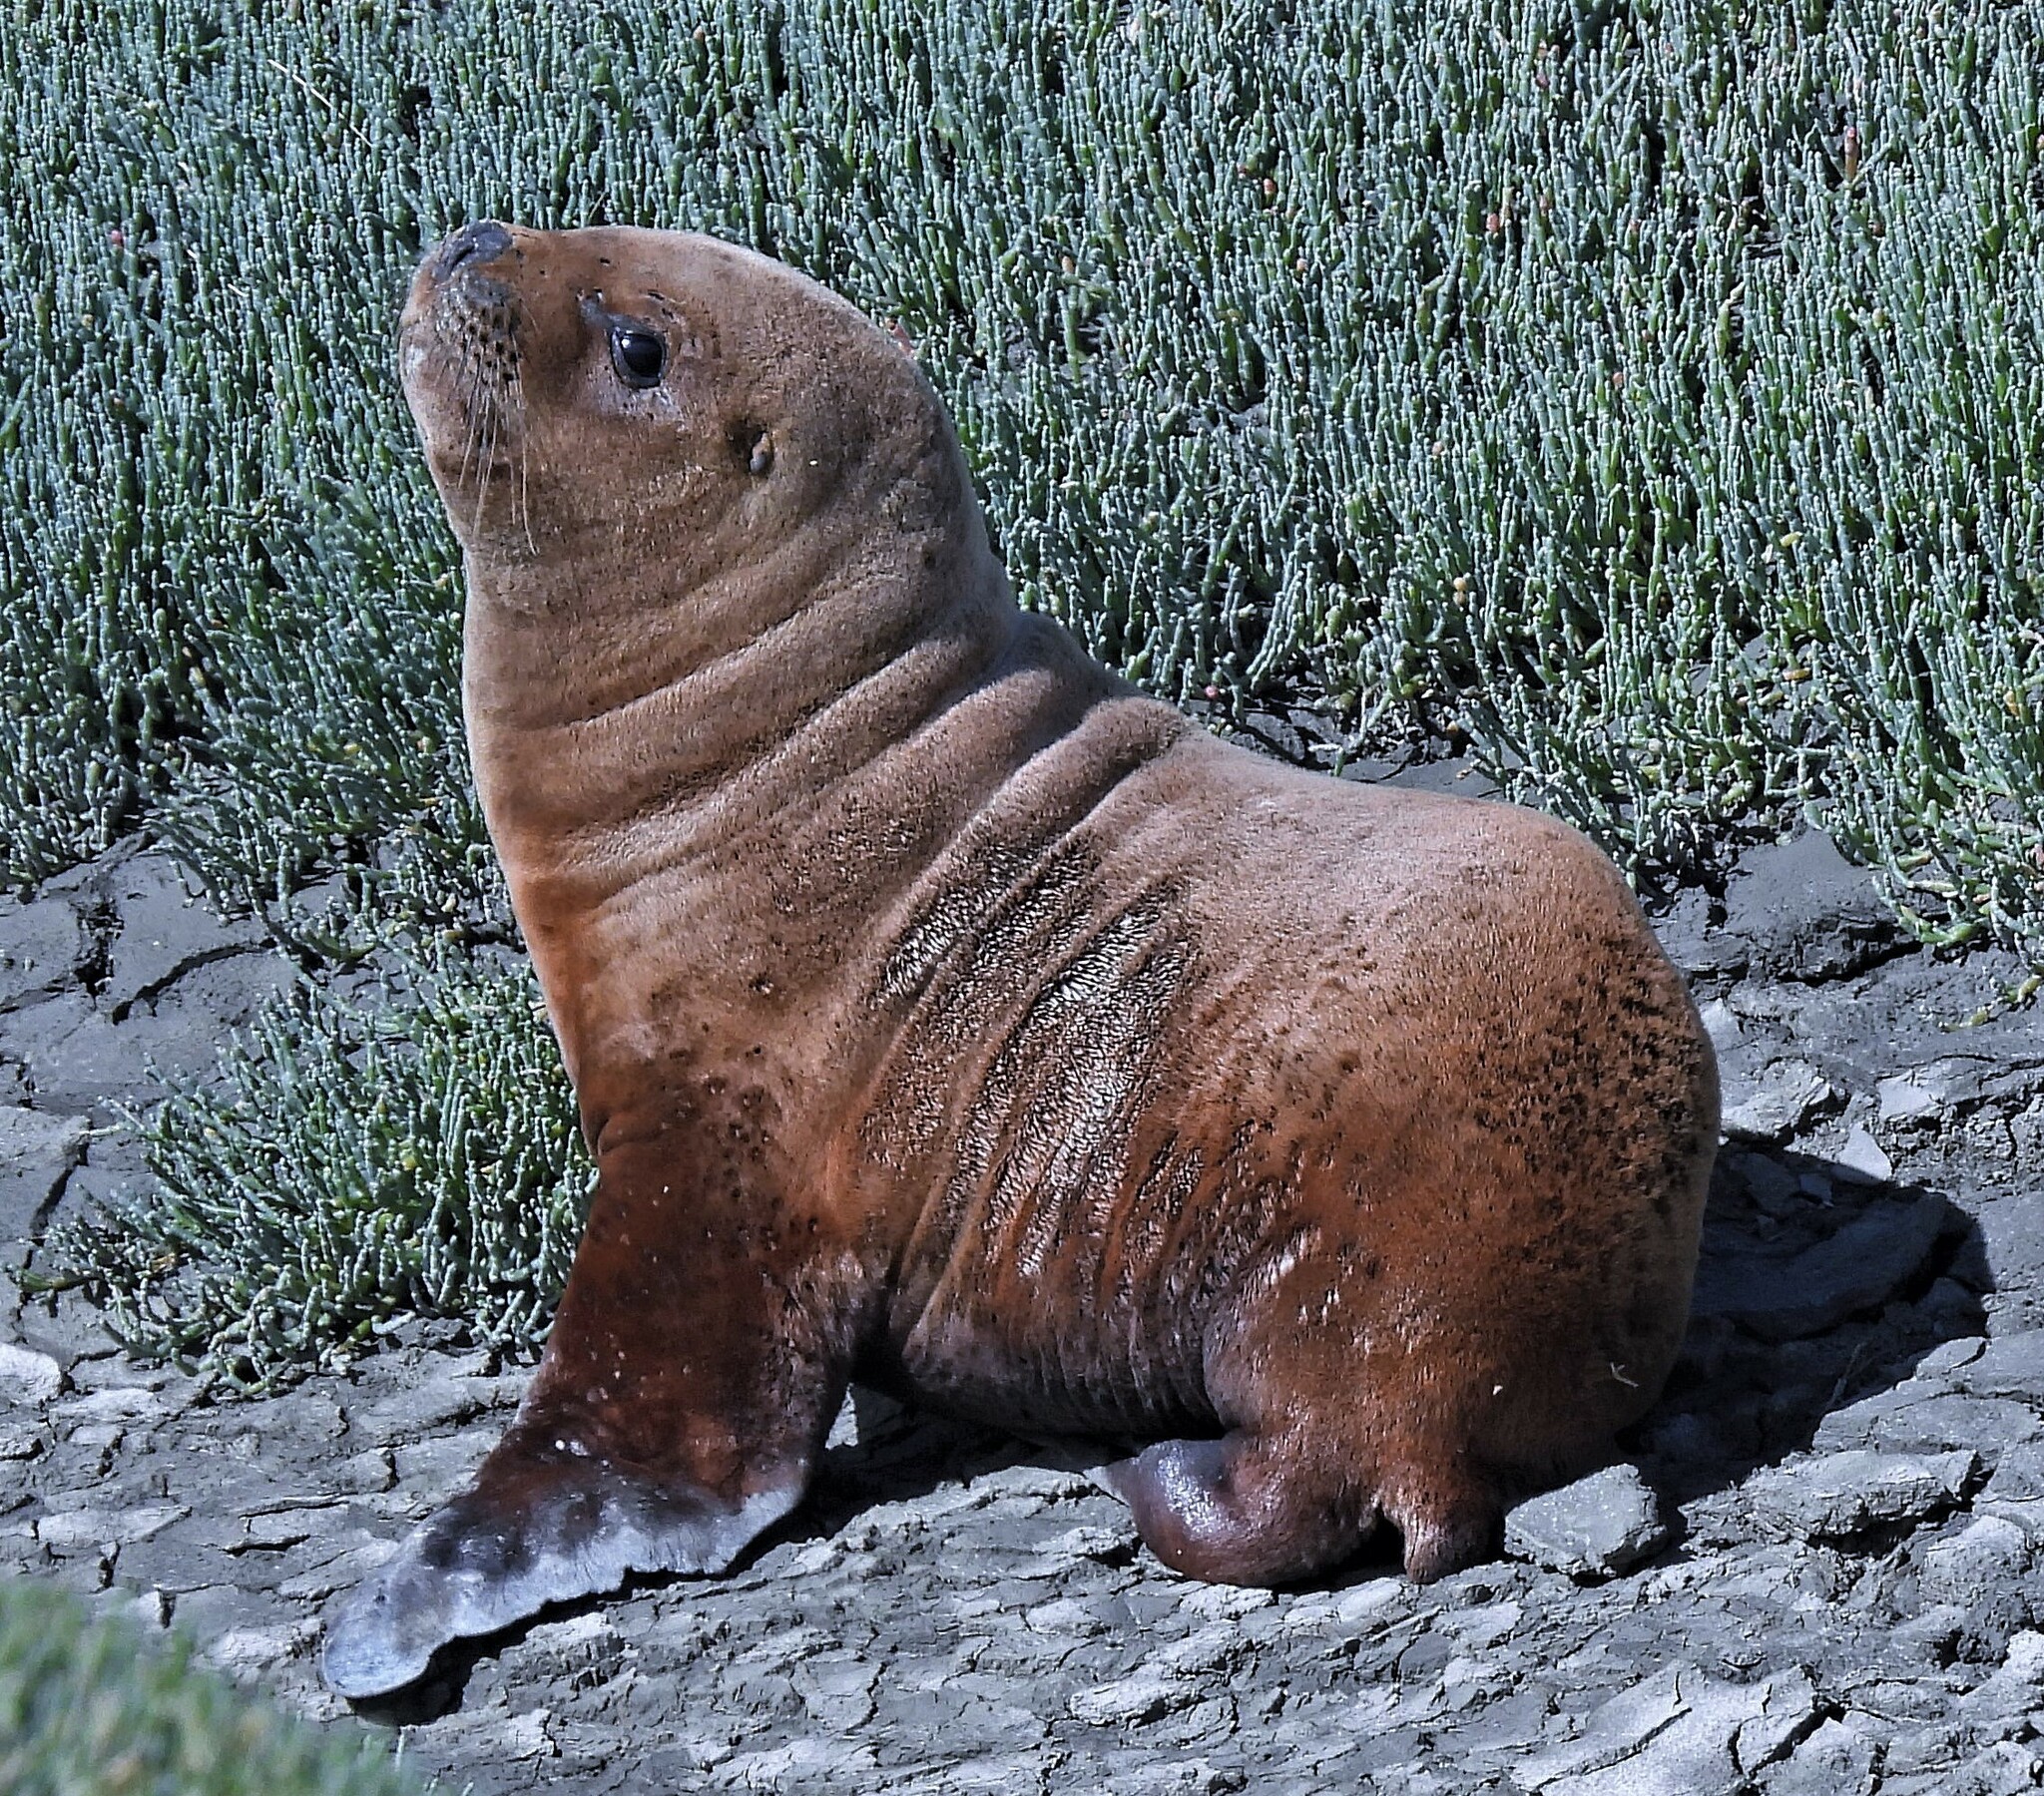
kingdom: Animalia
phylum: Chordata
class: Mammalia
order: Carnivora
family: Otariidae
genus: Otaria
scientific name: Otaria byronia
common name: South american sea lion
